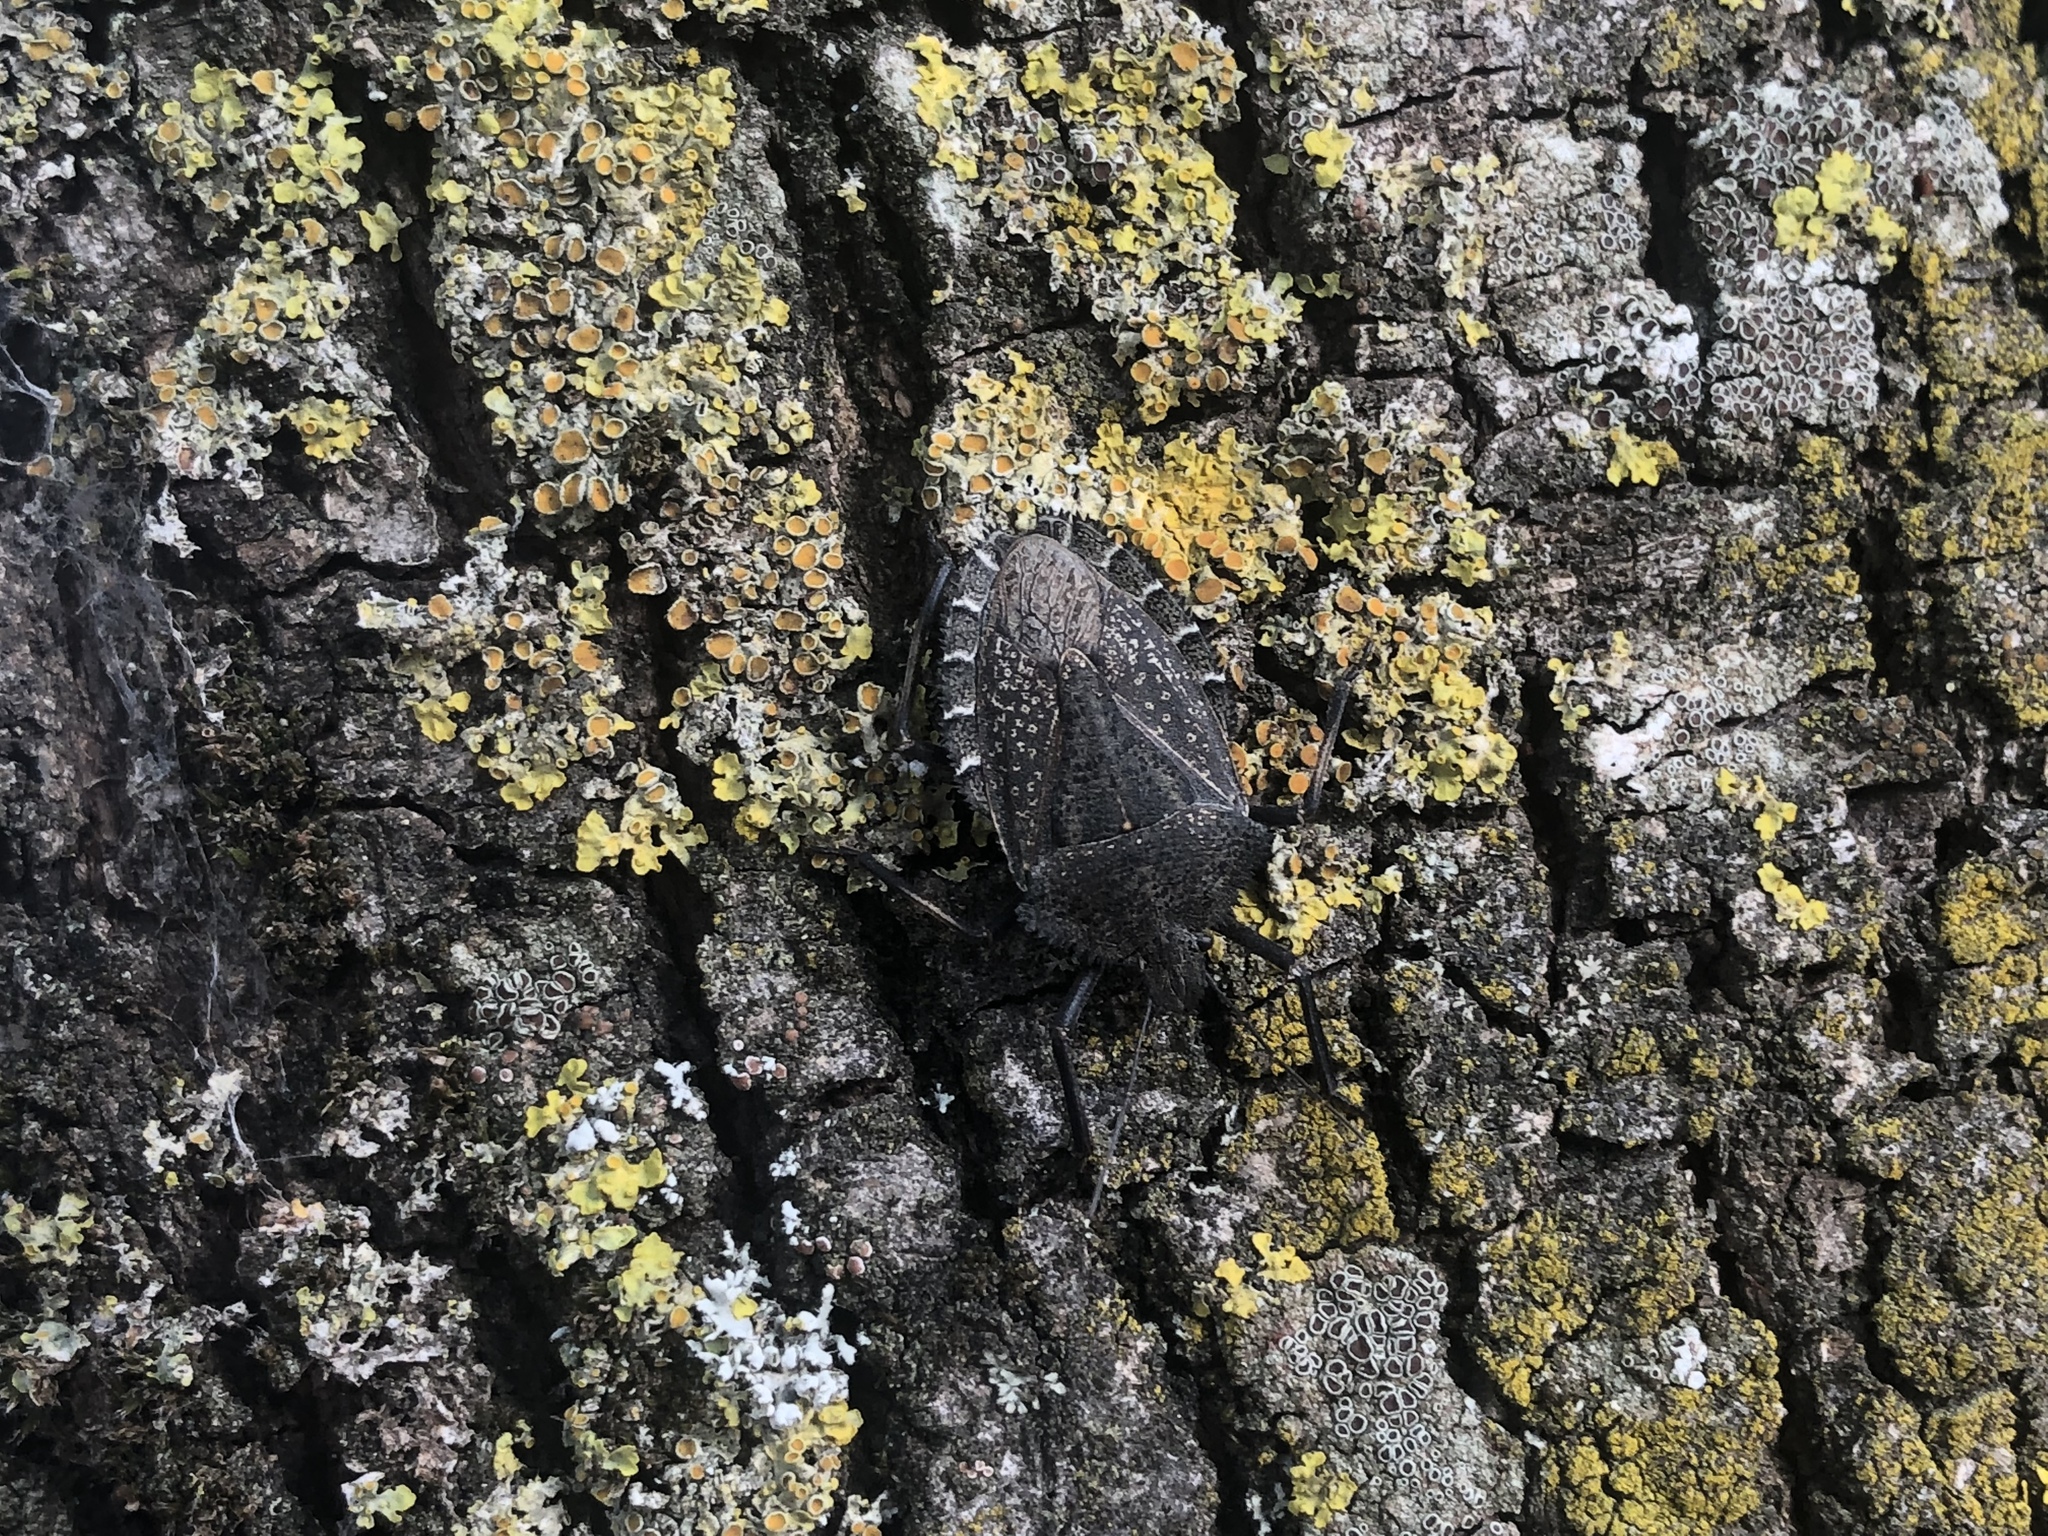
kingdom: Animalia
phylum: Arthropoda
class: Insecta
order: Hemiptera
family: Pentatomidae
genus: Mustha
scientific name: Mustha spinosula
